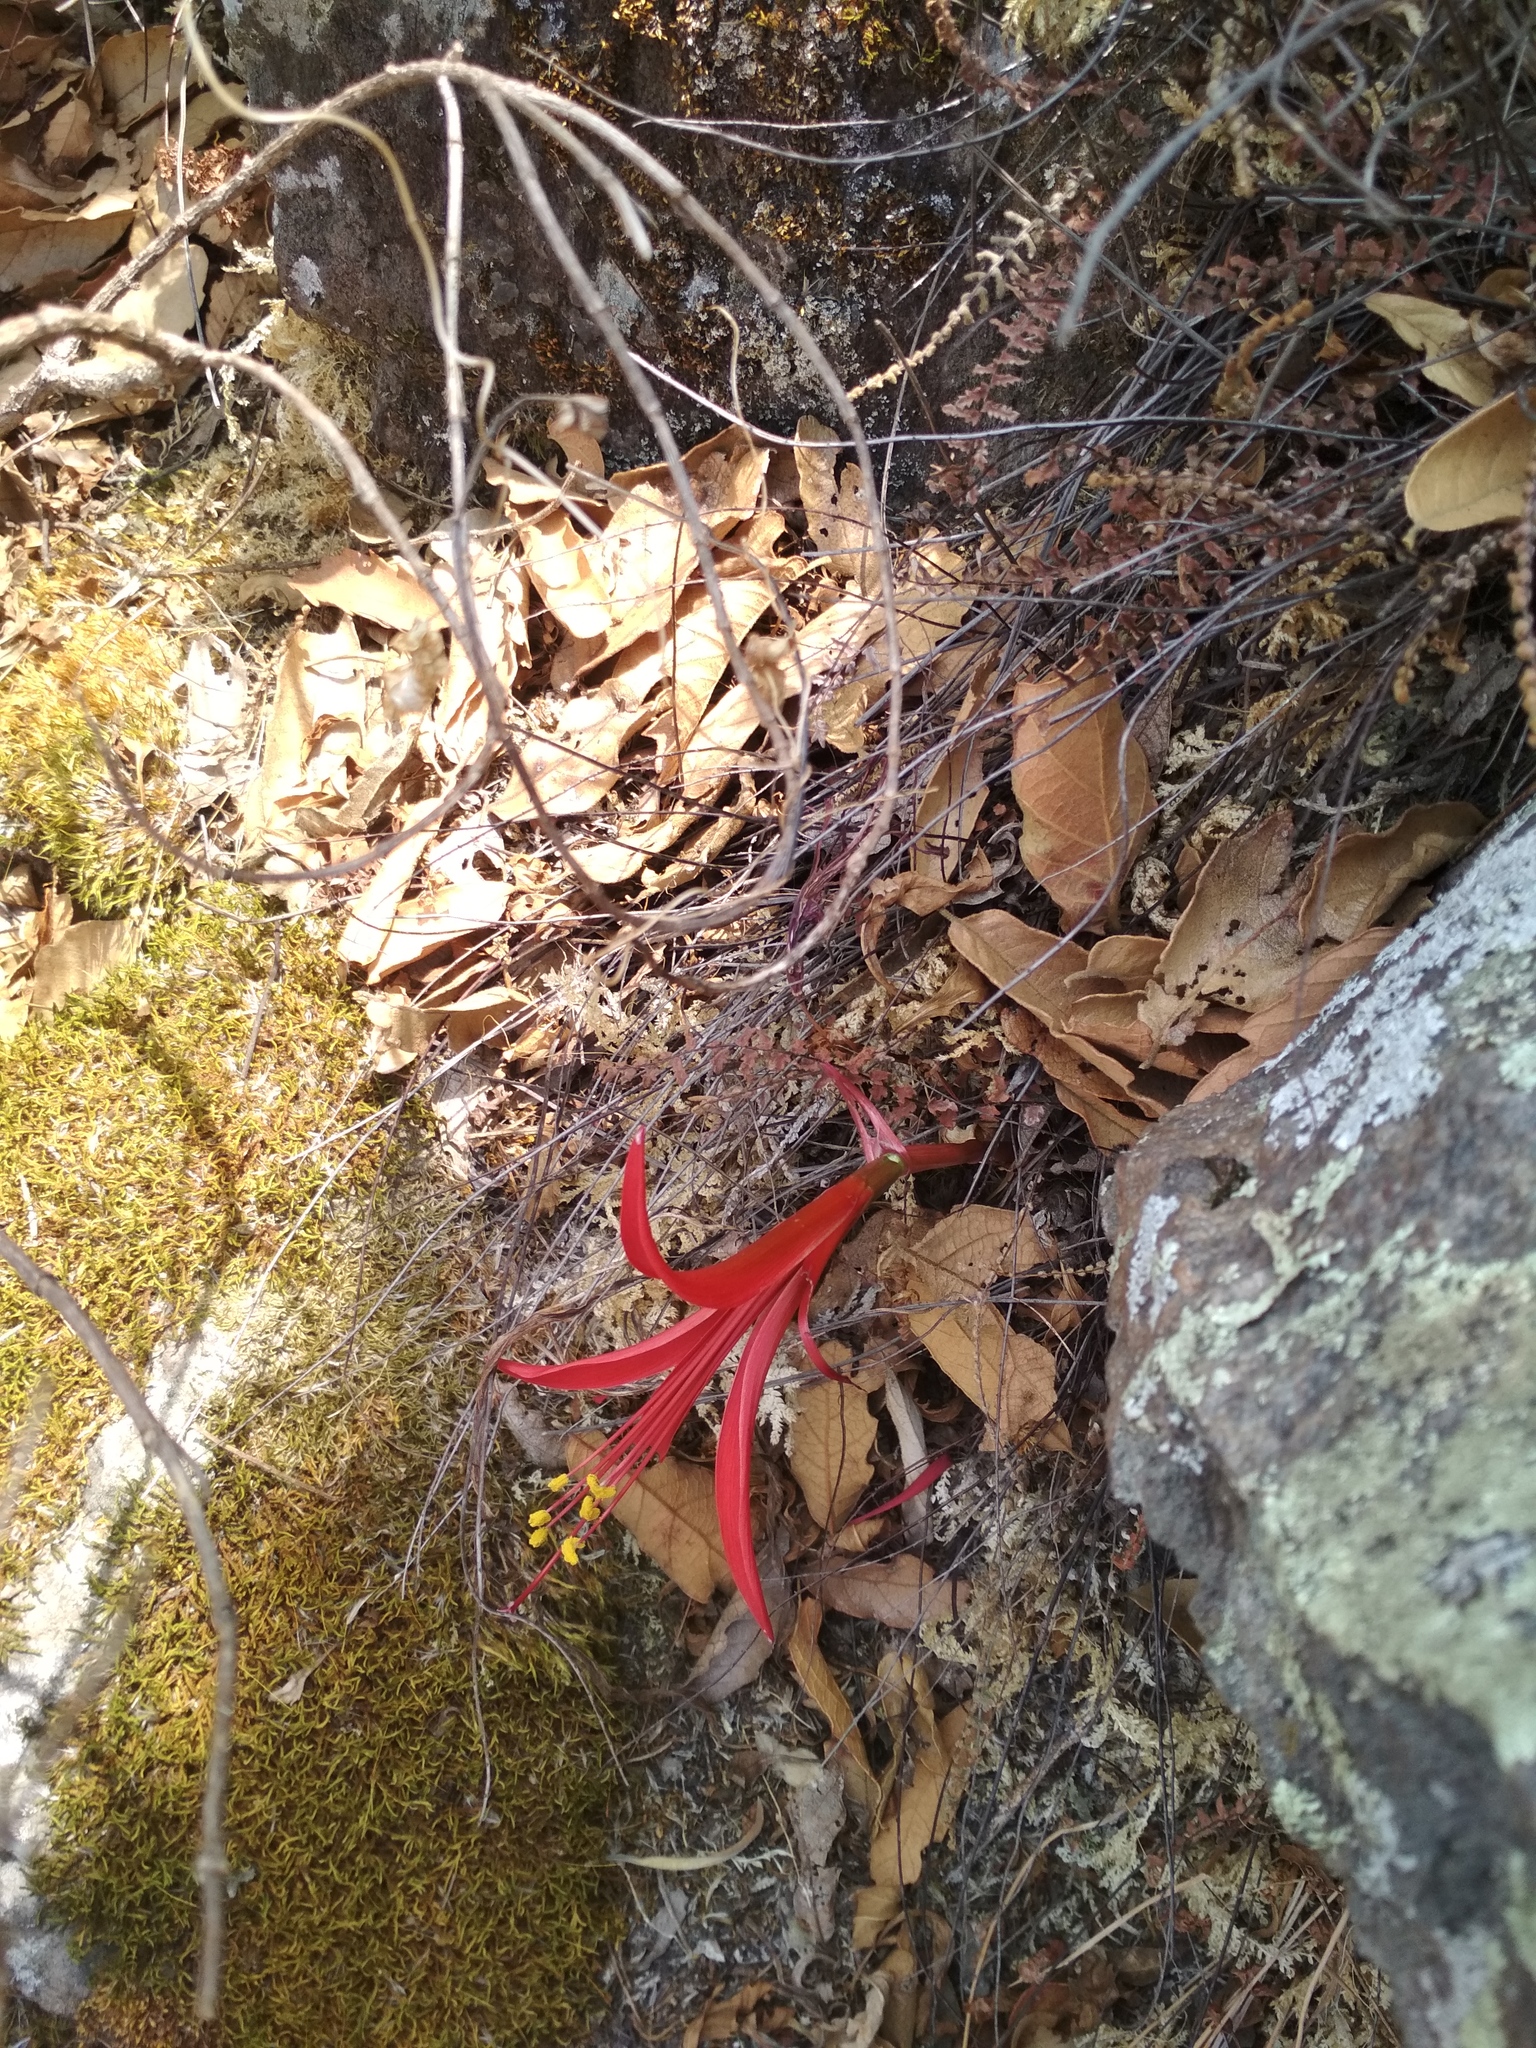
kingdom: Plantae
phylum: Tracheophyta
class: Liliopsida
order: Asparagales
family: Amaryllidaceae
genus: Sprekelia
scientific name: Sprekelia formosissima
